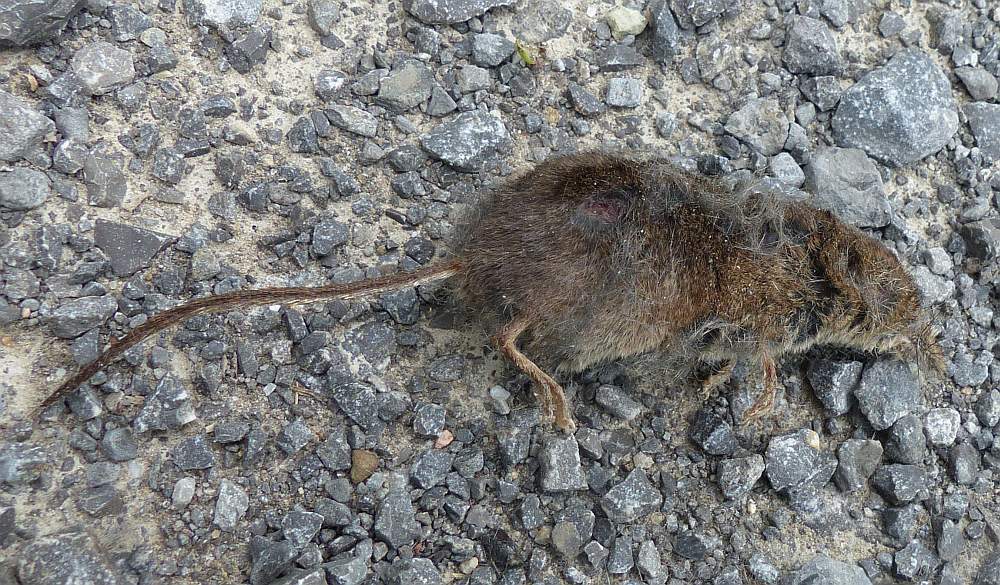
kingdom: Animalia
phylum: Chordata
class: Mammalia
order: Soricomorpha
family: Soricidae
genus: Sorex
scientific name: Sorex cinereus
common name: Cinereus shrew
